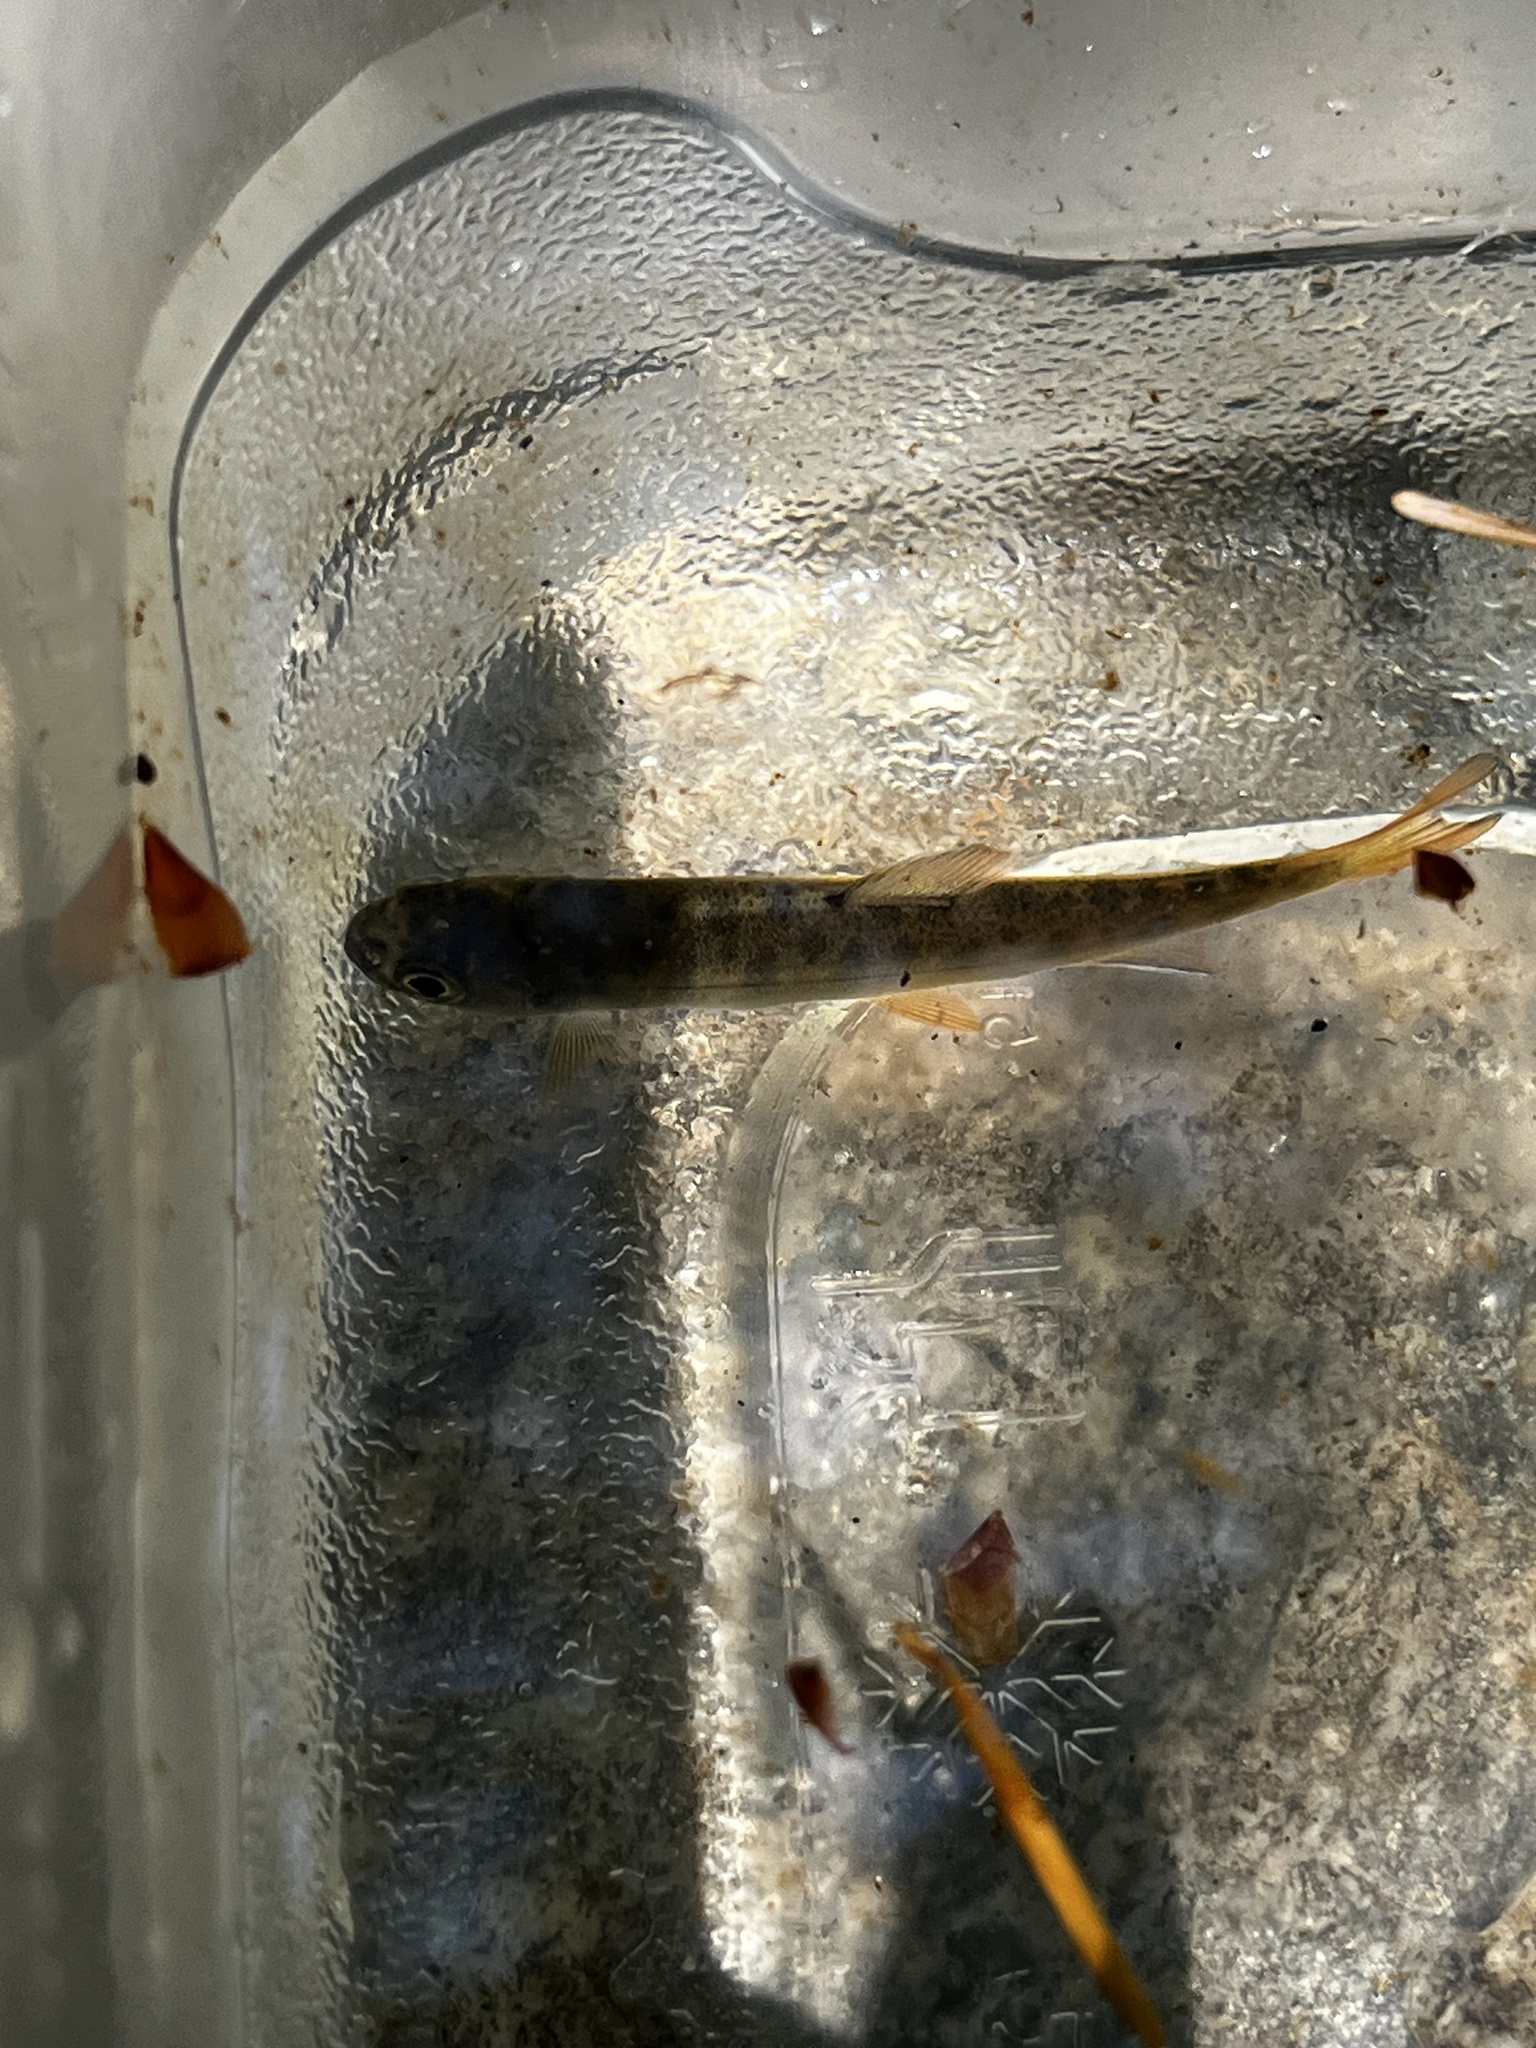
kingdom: Animalia
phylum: Chordata
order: Salmoniformes
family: Salmonidae
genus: Oncorhynchus
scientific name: Oncorhynchus kisutch
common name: Coho salmon
